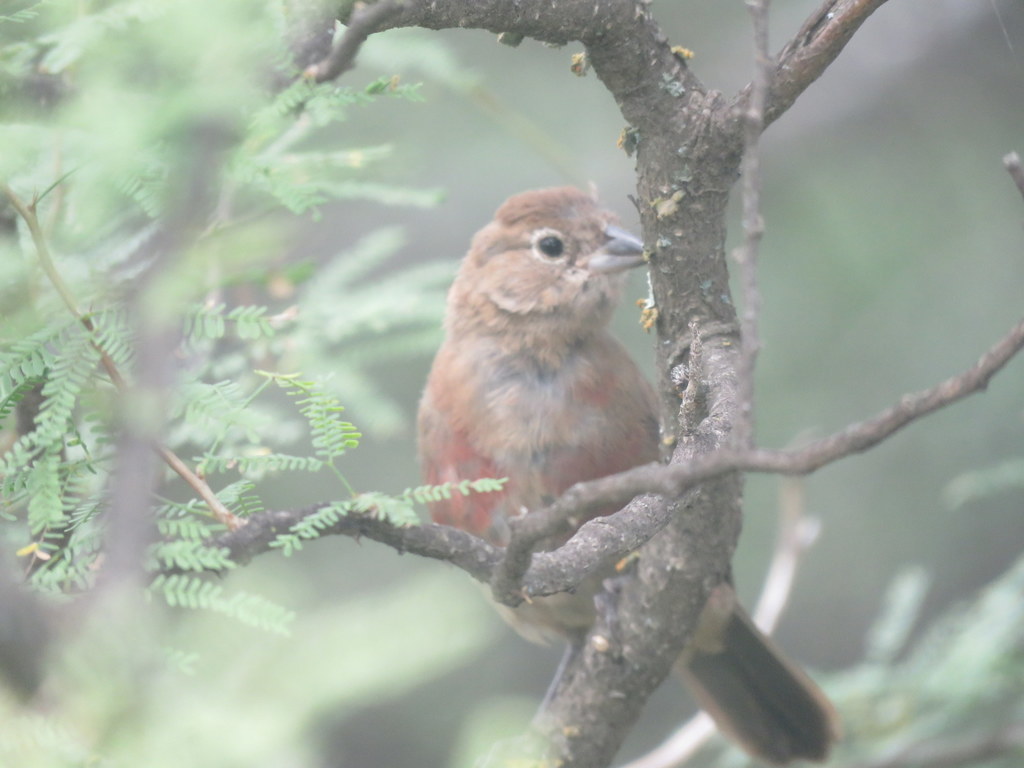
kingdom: Animalia
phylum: Chordata
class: Aves
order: Passeriformes
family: Thraupidae
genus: Coryphospingus
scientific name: Coryphospingus cucullatus
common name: Red pileated finch
